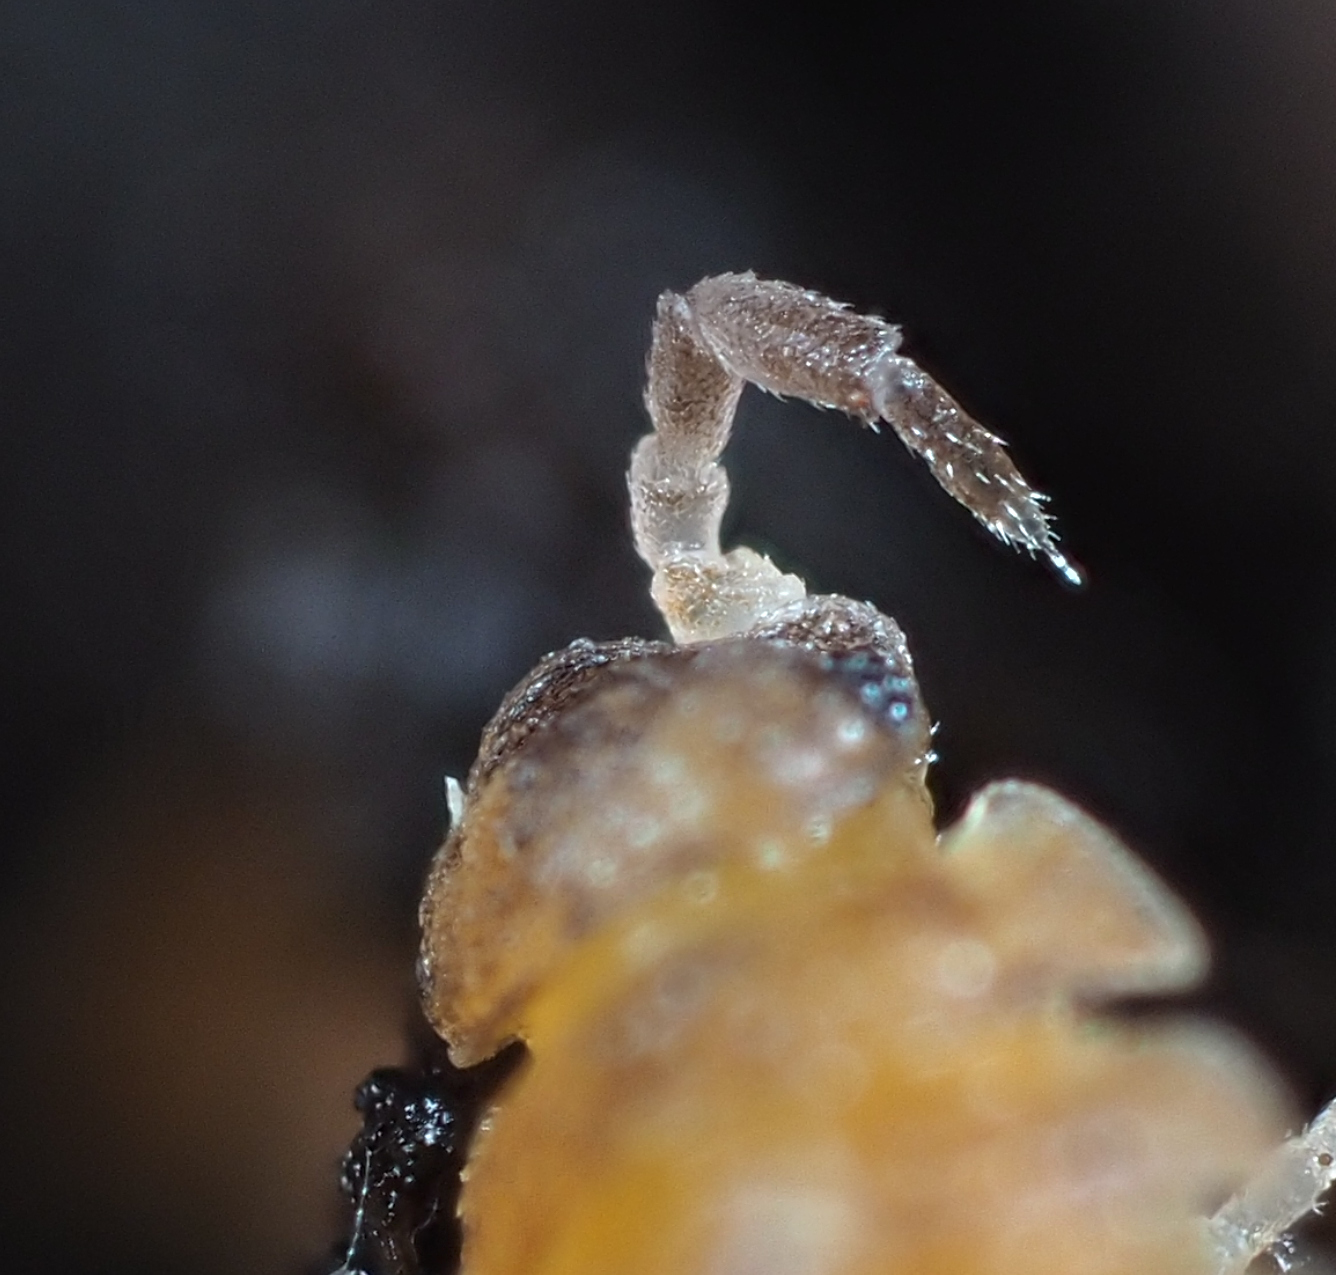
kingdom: Animalia
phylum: Arthropoda
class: Malacostraca
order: Isopoda
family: Porcellionidae
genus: Porcellio
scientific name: Porcellio scaber
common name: Common rough woodlouse
